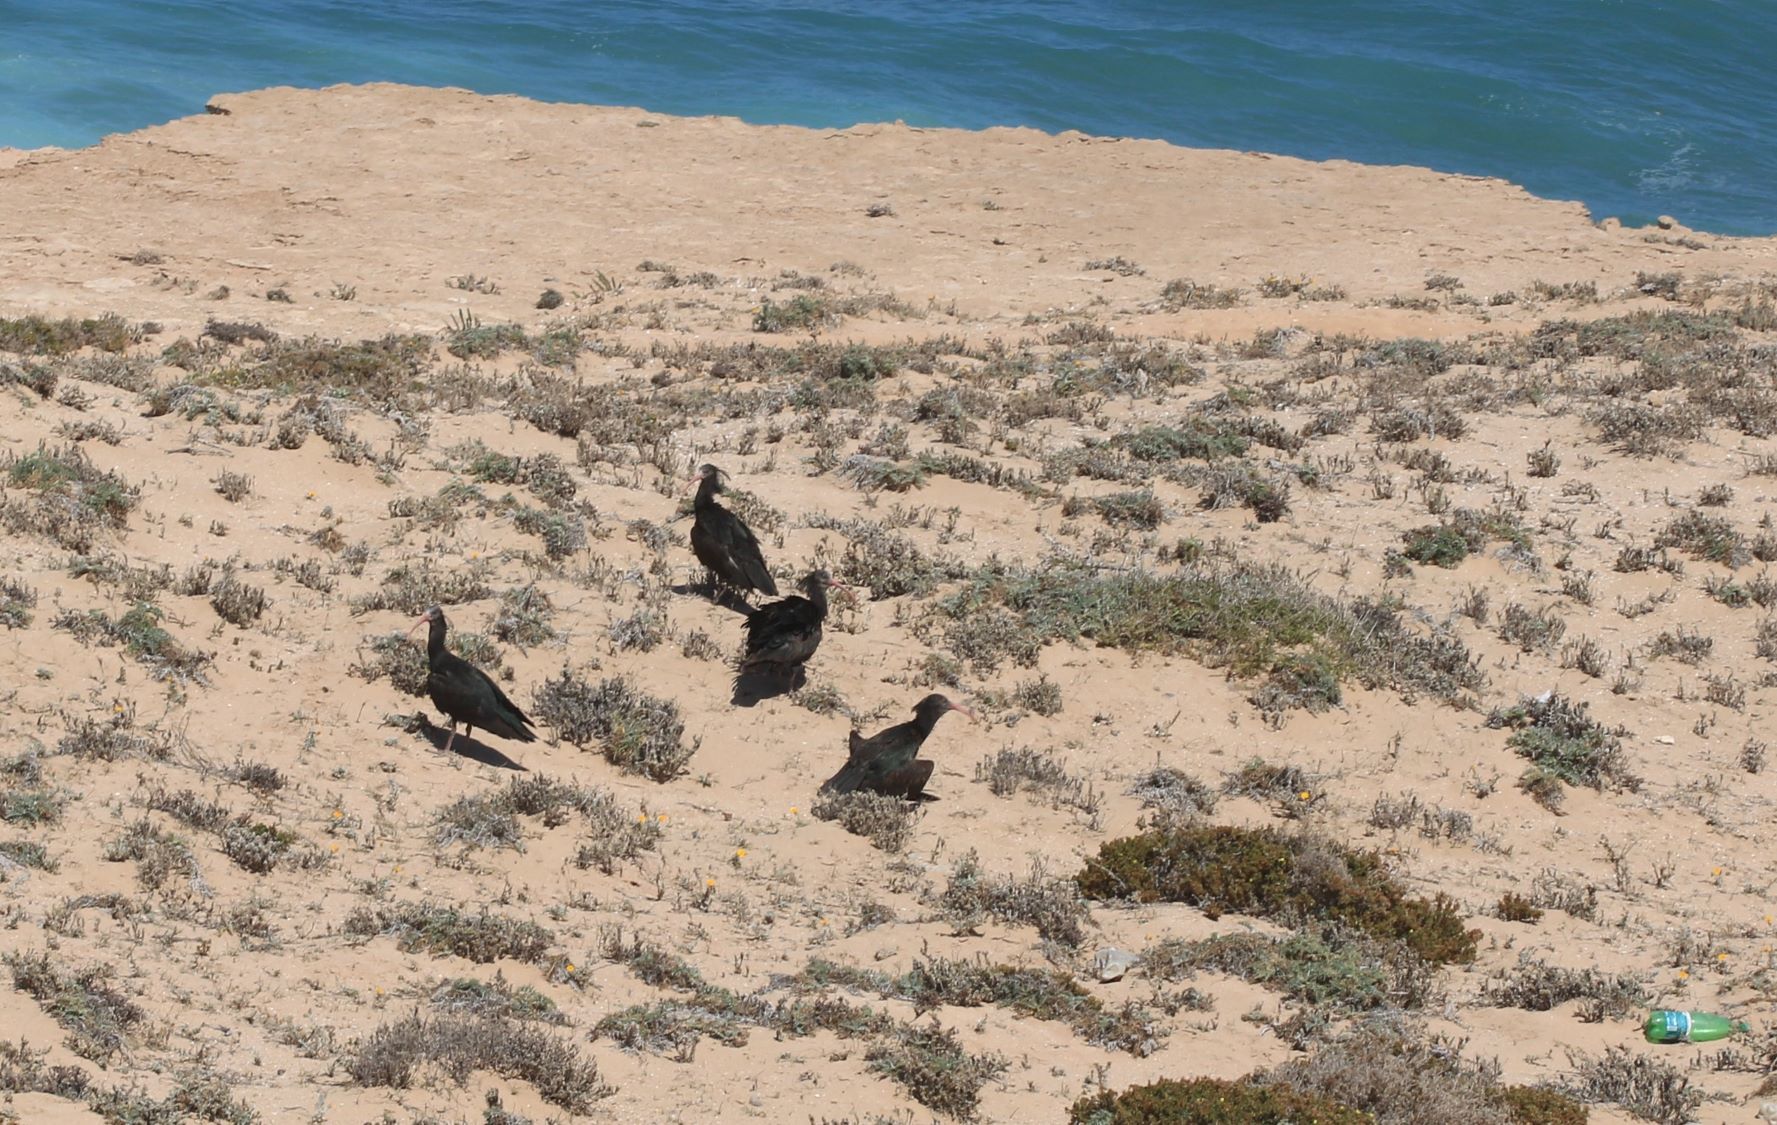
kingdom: Animalia
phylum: Chordata
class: Aves
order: Pelecaniformes
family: Threskiornithidae
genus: Geronticus
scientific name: Geronticus eremita
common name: Northern bald ibis
